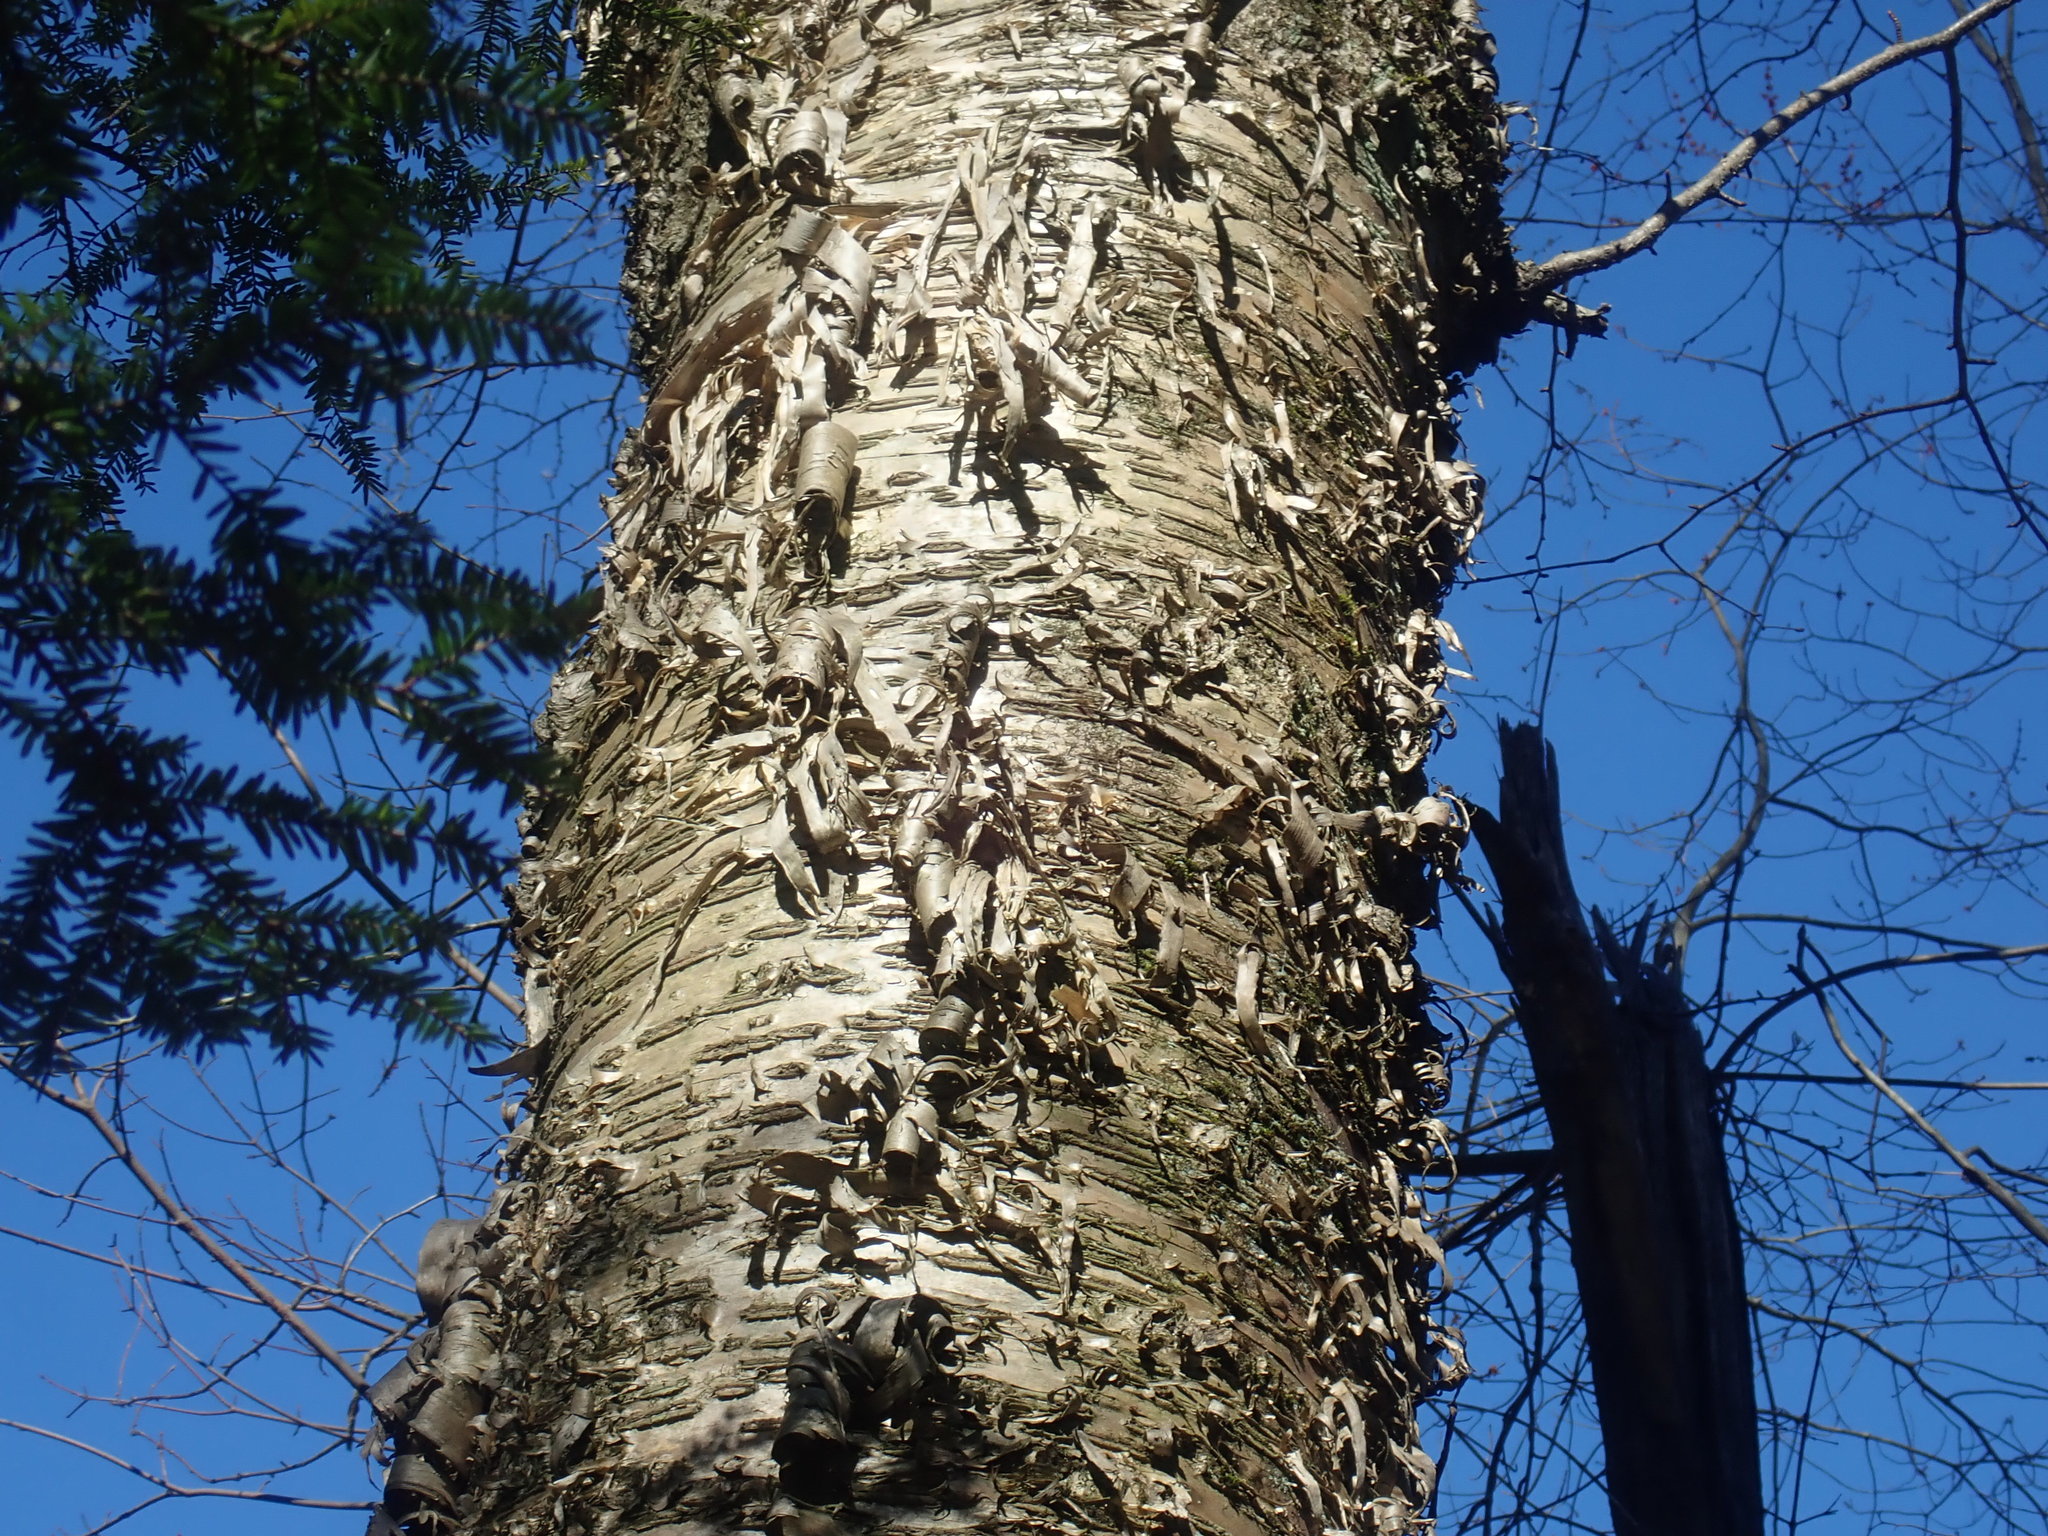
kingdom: Plantae
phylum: Tracheophyta
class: Magnoliopsida
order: Fagales
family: Betulaceae
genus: Betula
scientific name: Betula alleghaniensis
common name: Yellow birch
